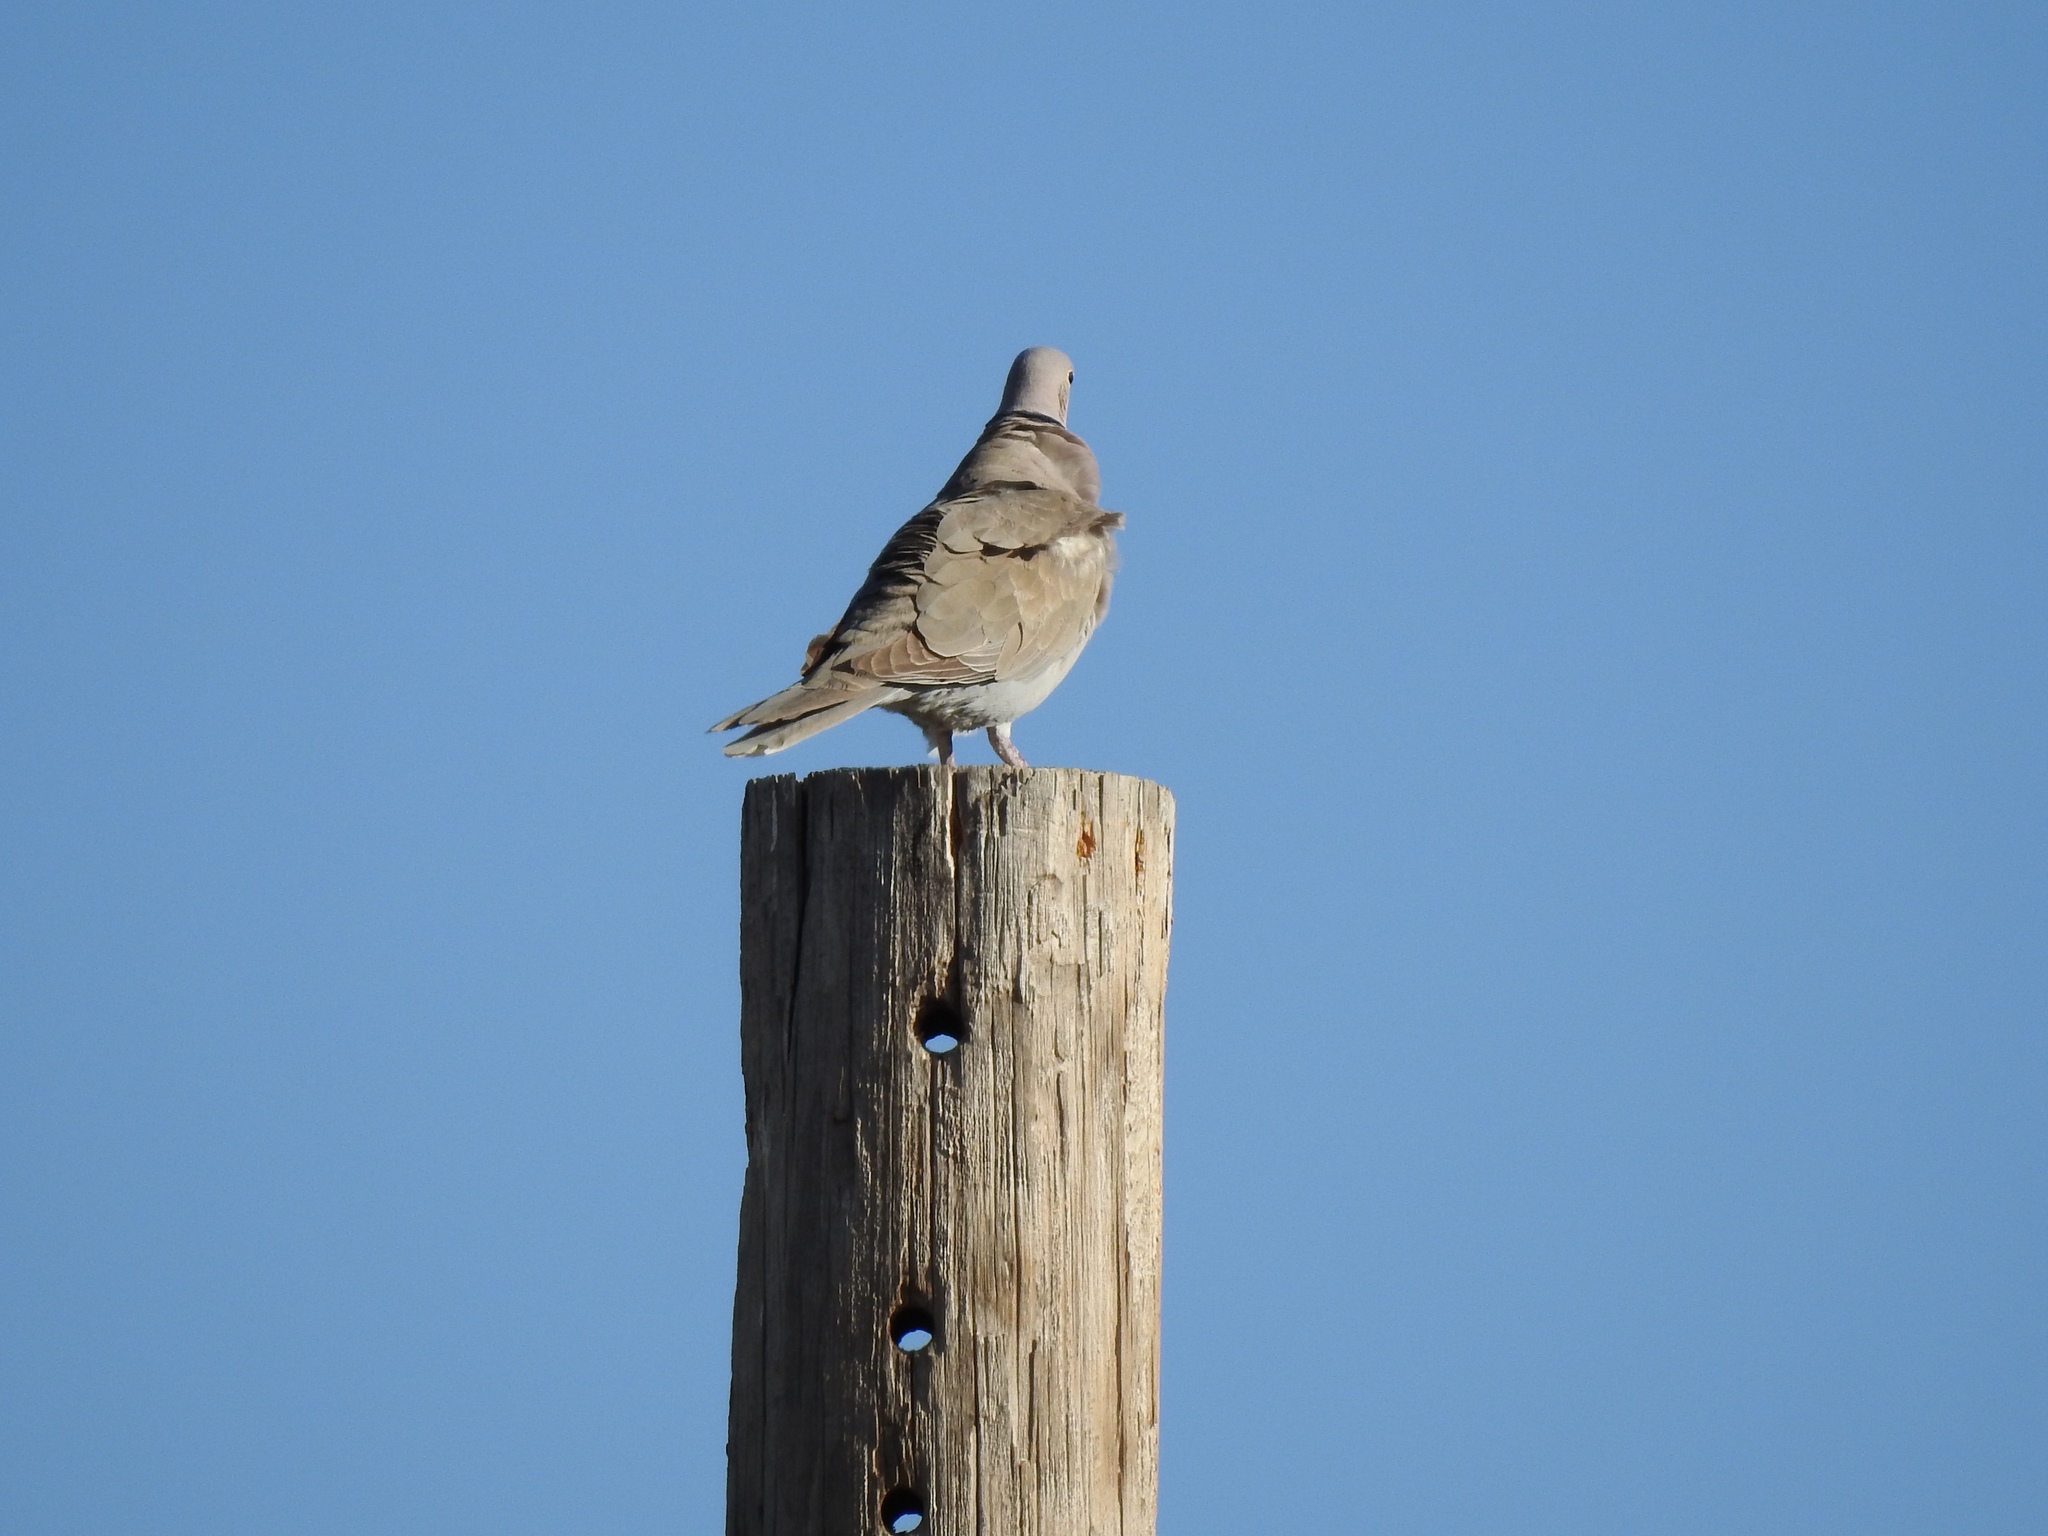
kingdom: Animalia
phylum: Chordata
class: Aves
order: Columbiformes
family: Columbidae
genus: Streptopelia
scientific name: Streptopelia decaocto
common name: Eurasian collared dove
